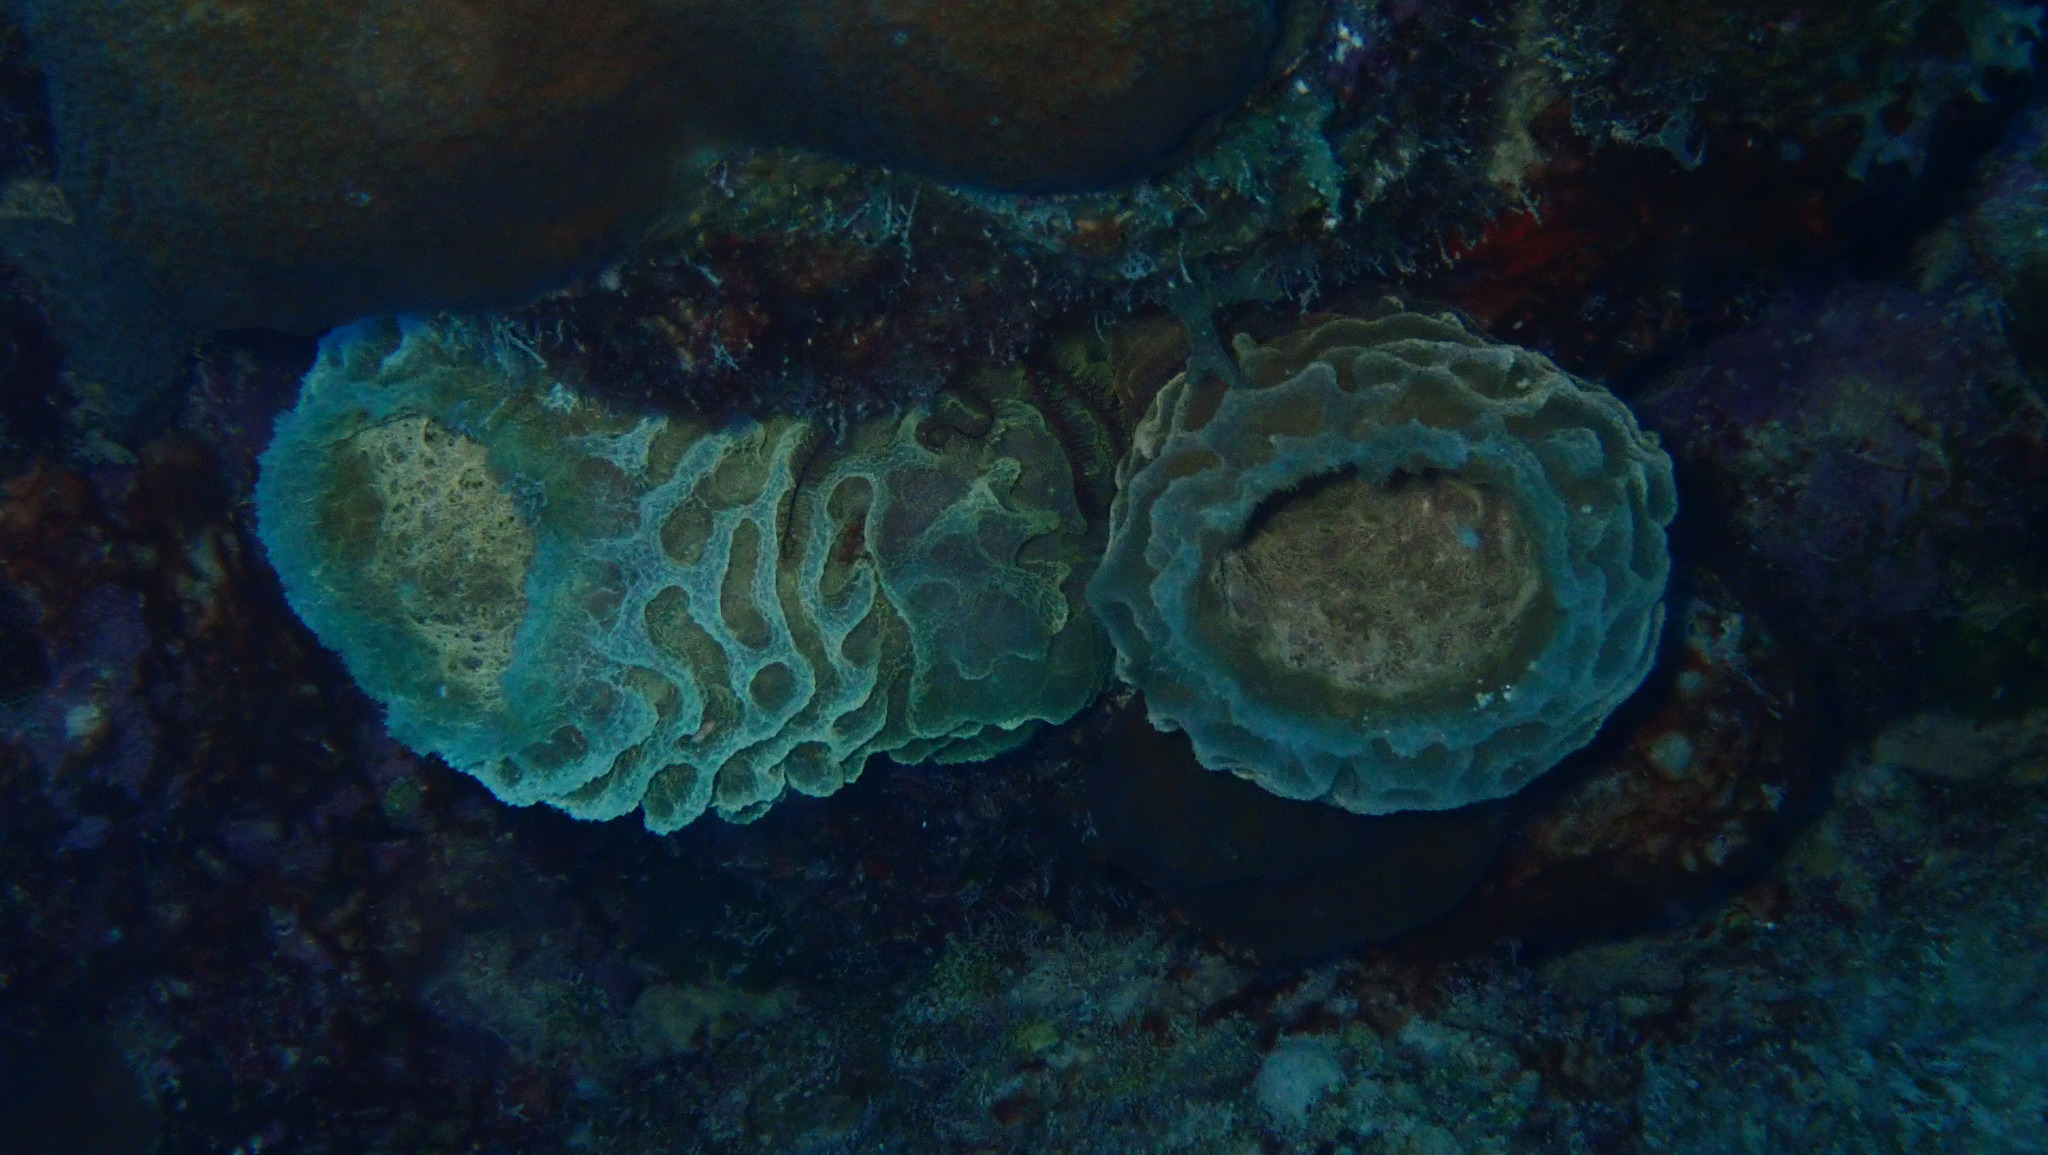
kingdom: Animalia
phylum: Porifera
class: Demospongiae
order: Haplosclerida
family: Callyspongiidae
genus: Callyspongia
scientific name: Callyspongia plicifera
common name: Azure vase sponge
